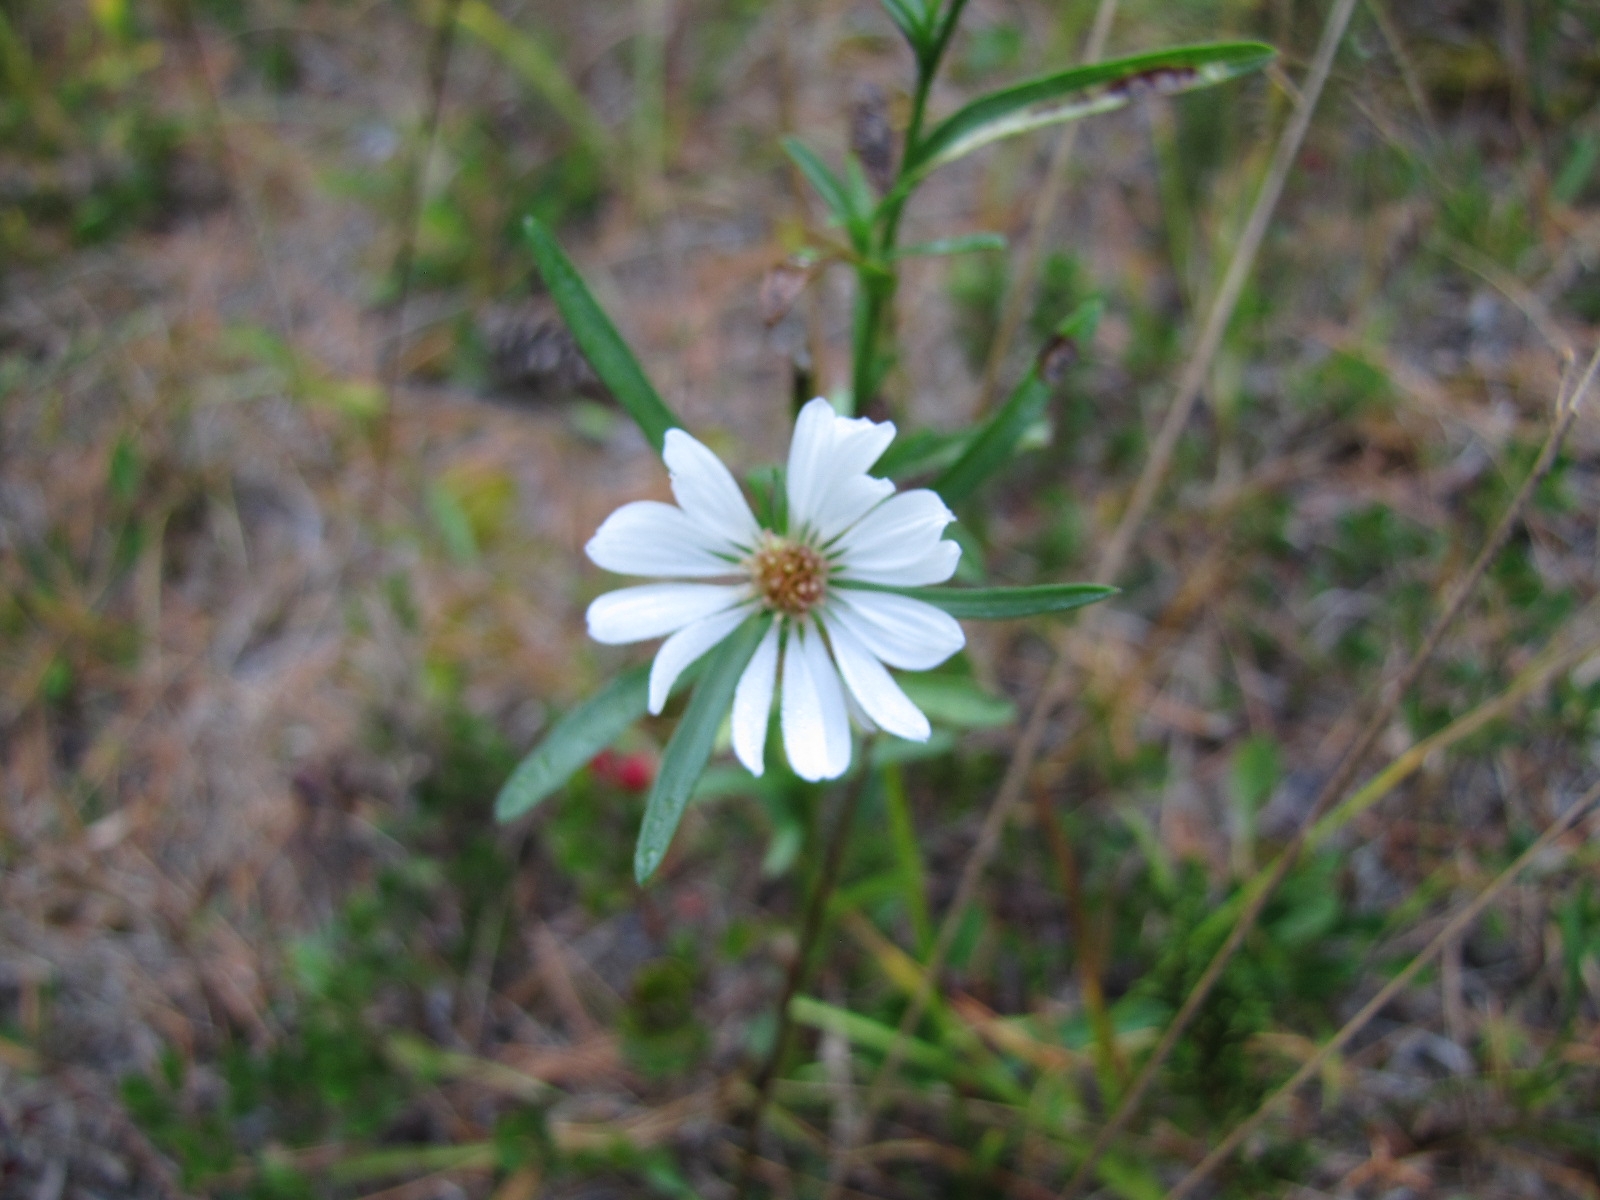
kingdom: Plantae
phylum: Tracheophyta
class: Magnoliopsida
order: Asterales
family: Asteraceae
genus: Symphyotrichum
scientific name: Symphyotrichum laeve
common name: Glaucous aster
